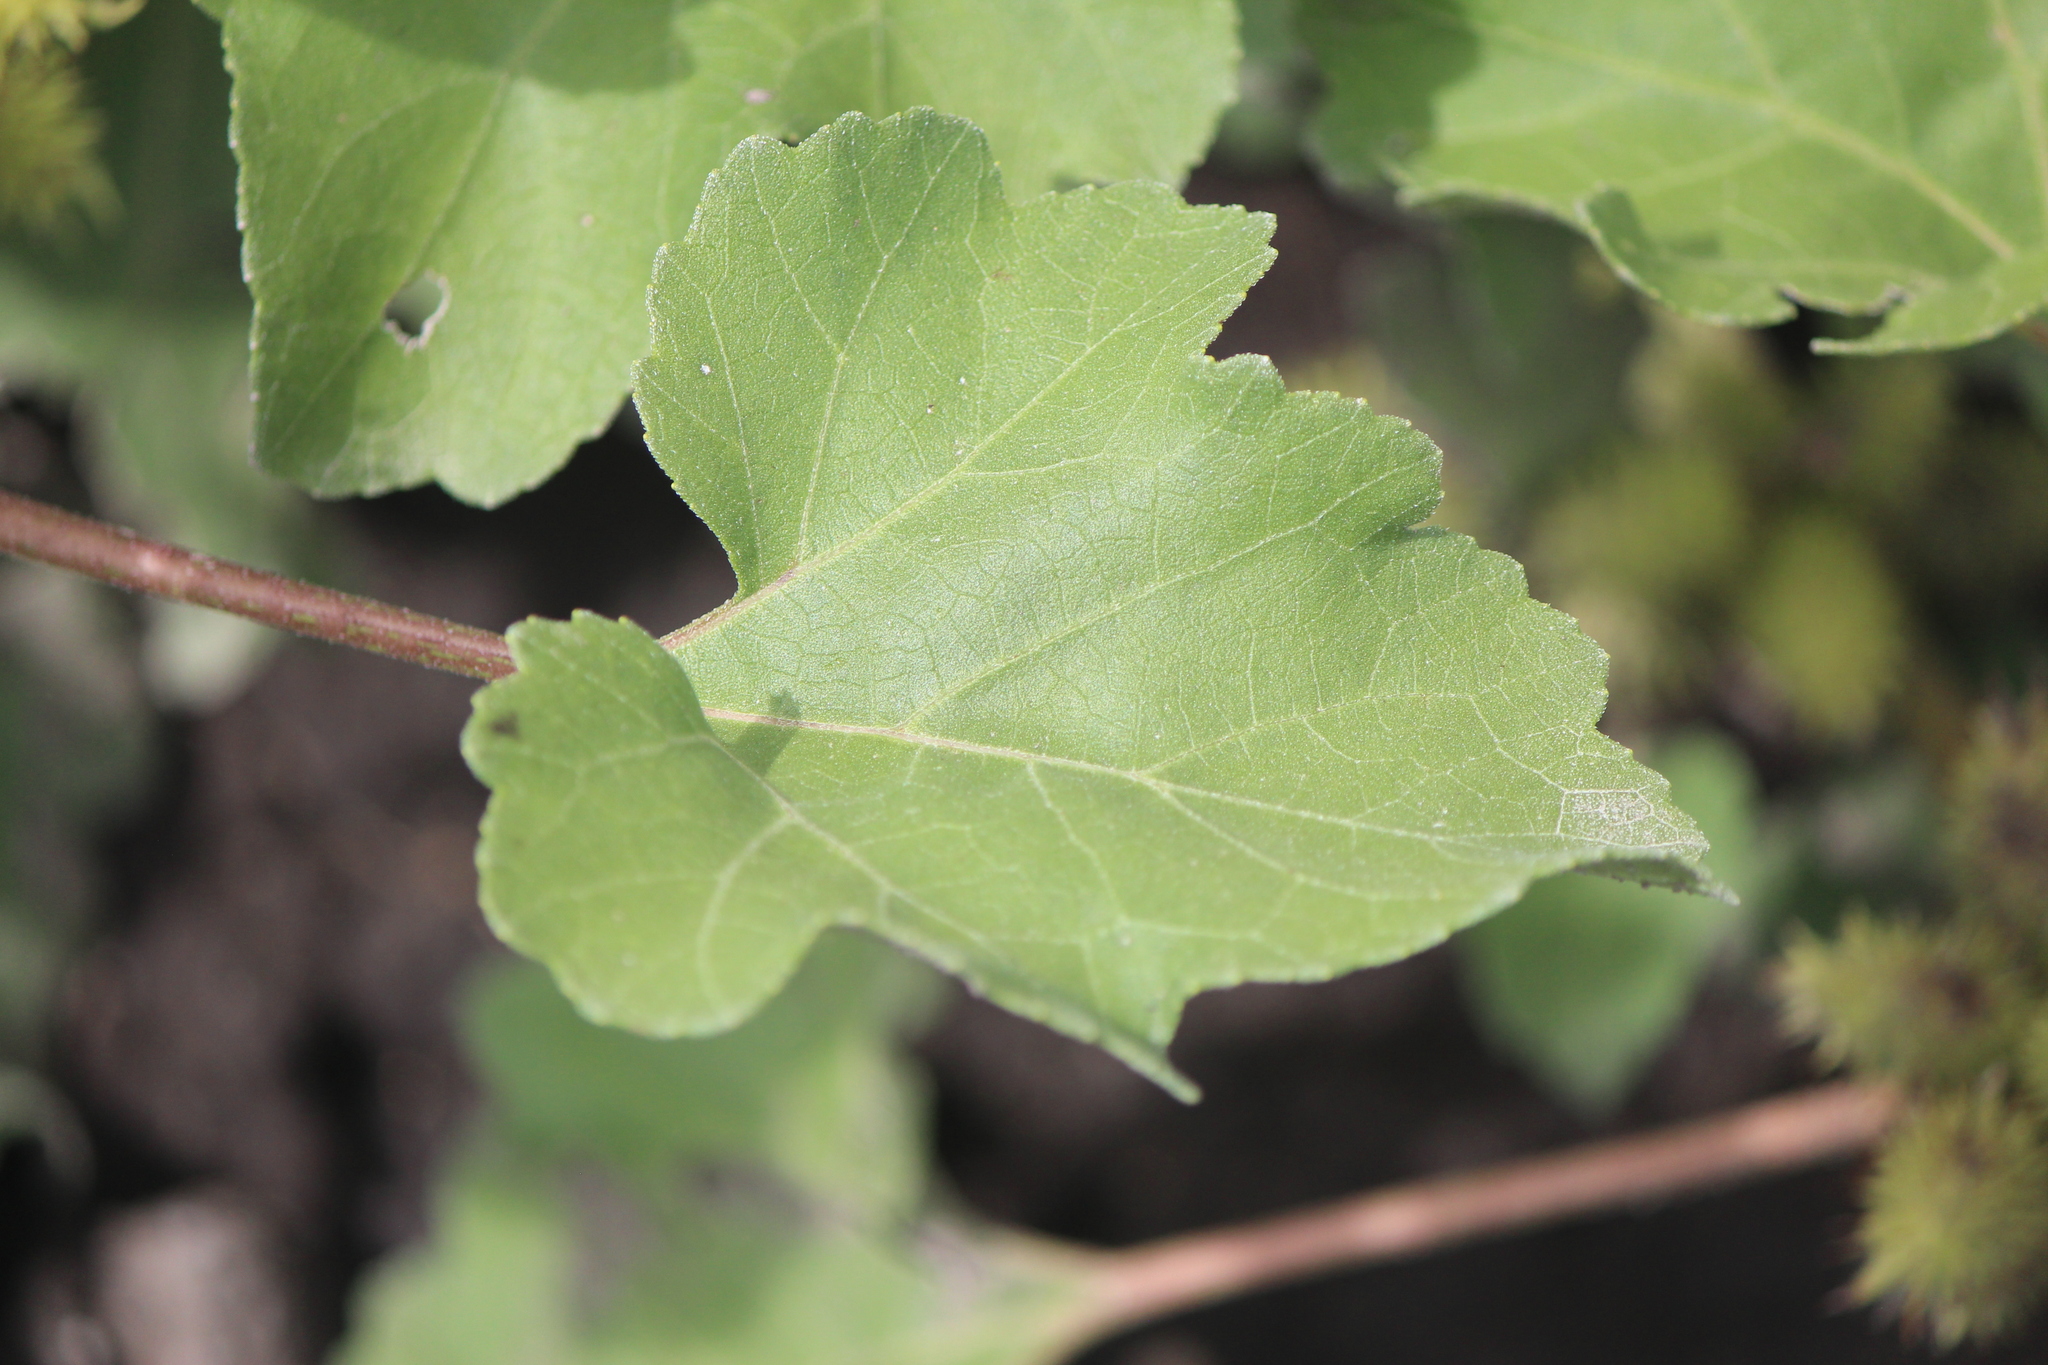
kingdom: Plantae
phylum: Tracheophyta
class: Magnoliopsida
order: Asterales
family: Asteraceae
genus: Xanthium
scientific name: Xanthium strumarium
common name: Rough cocklebur
